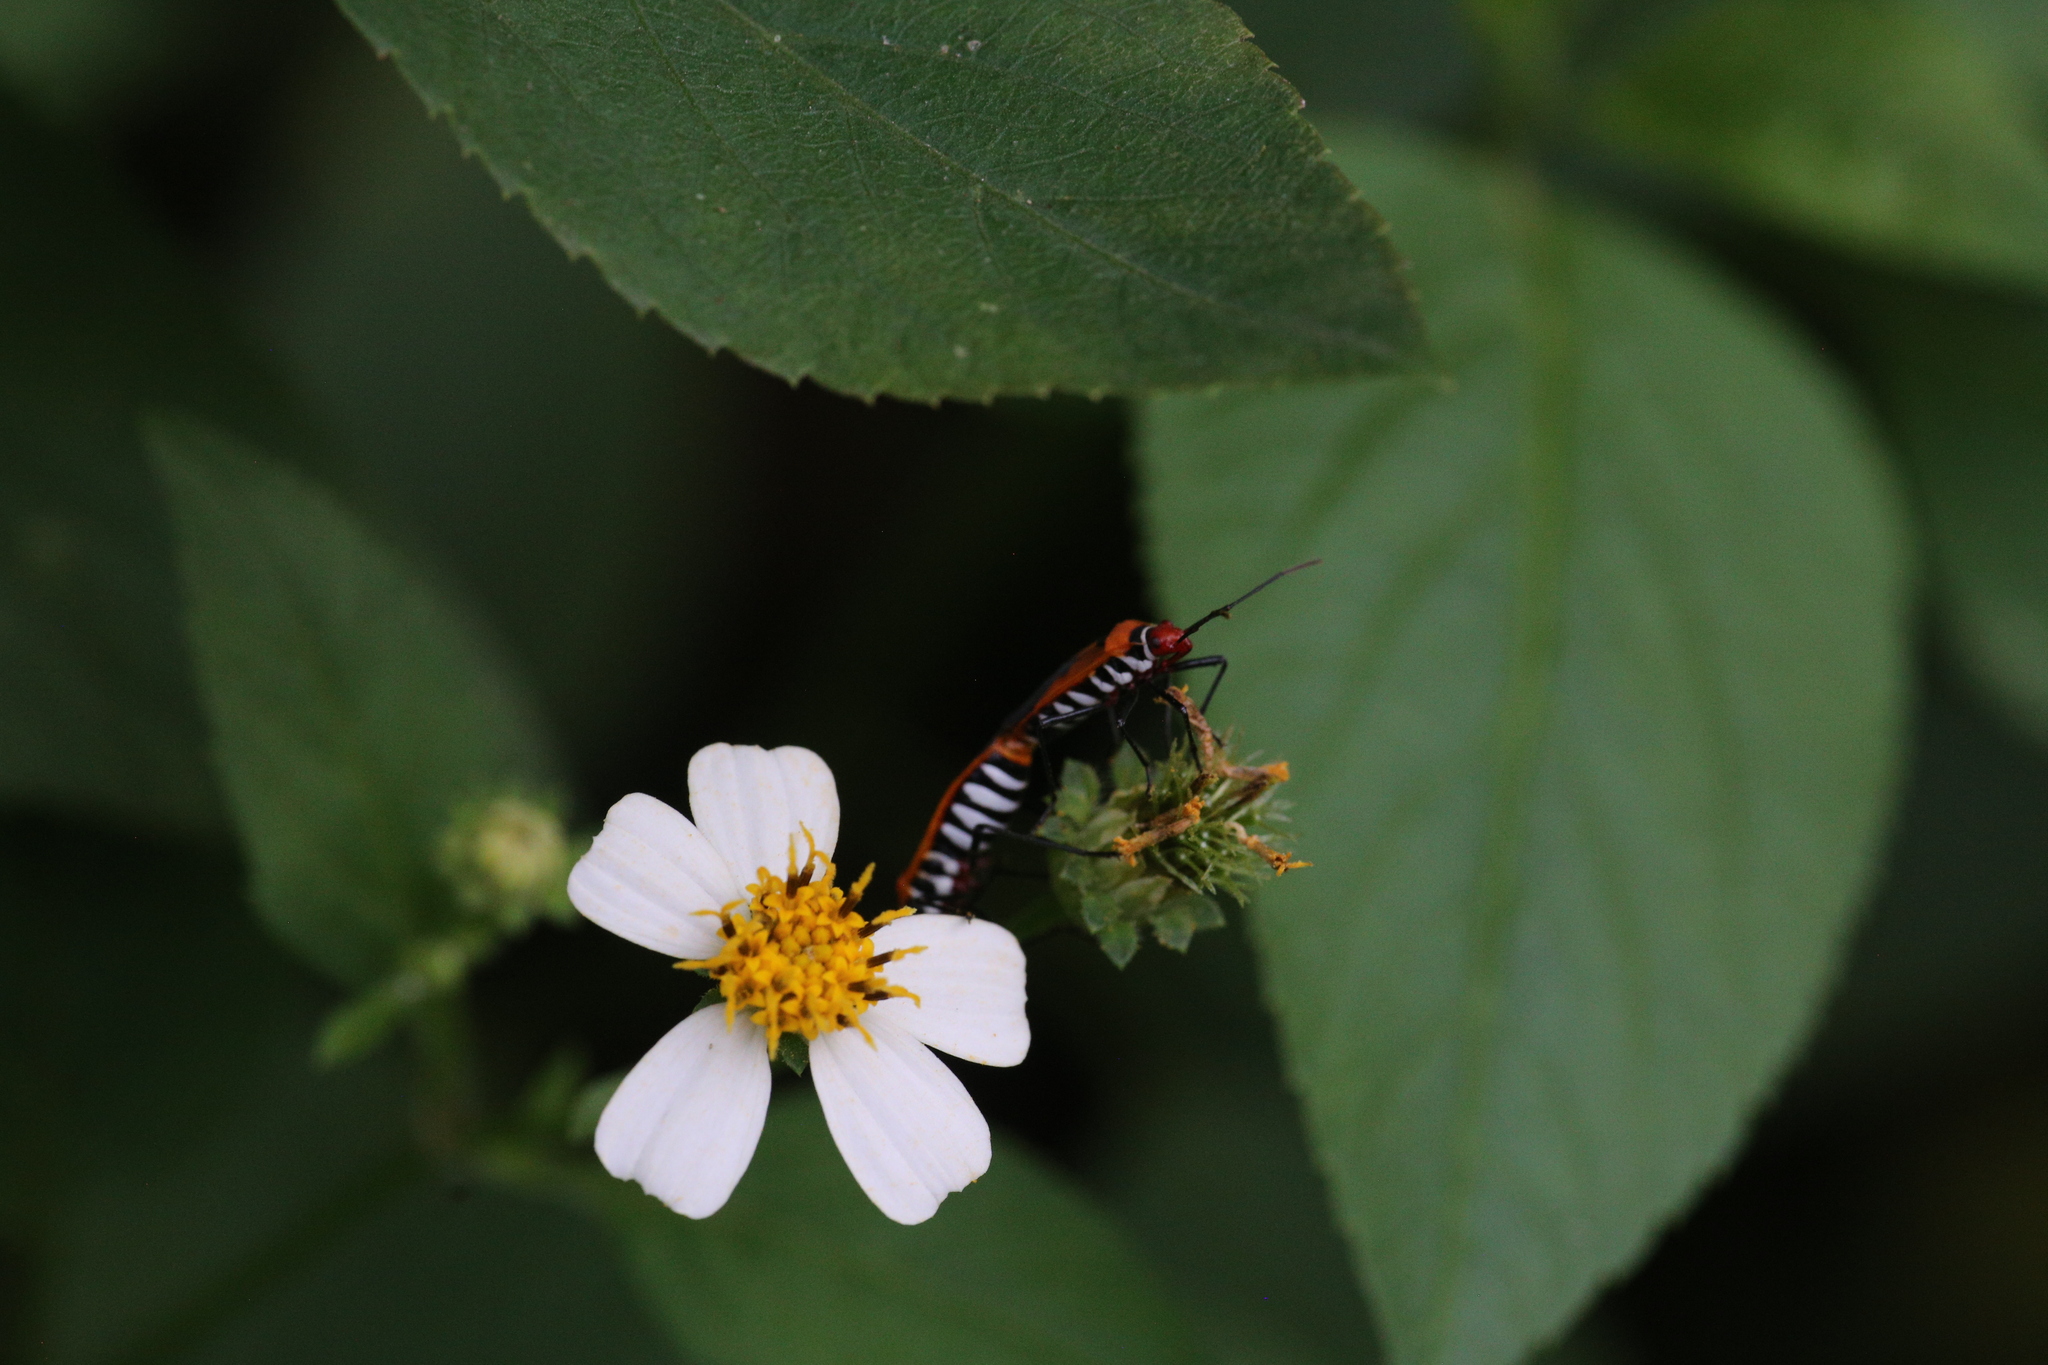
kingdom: Animalia
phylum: Arthropoda
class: Insecta
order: Hemiptera
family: Pyrrhocoridae
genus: Dysdercus
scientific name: Dysdercus poecilus
